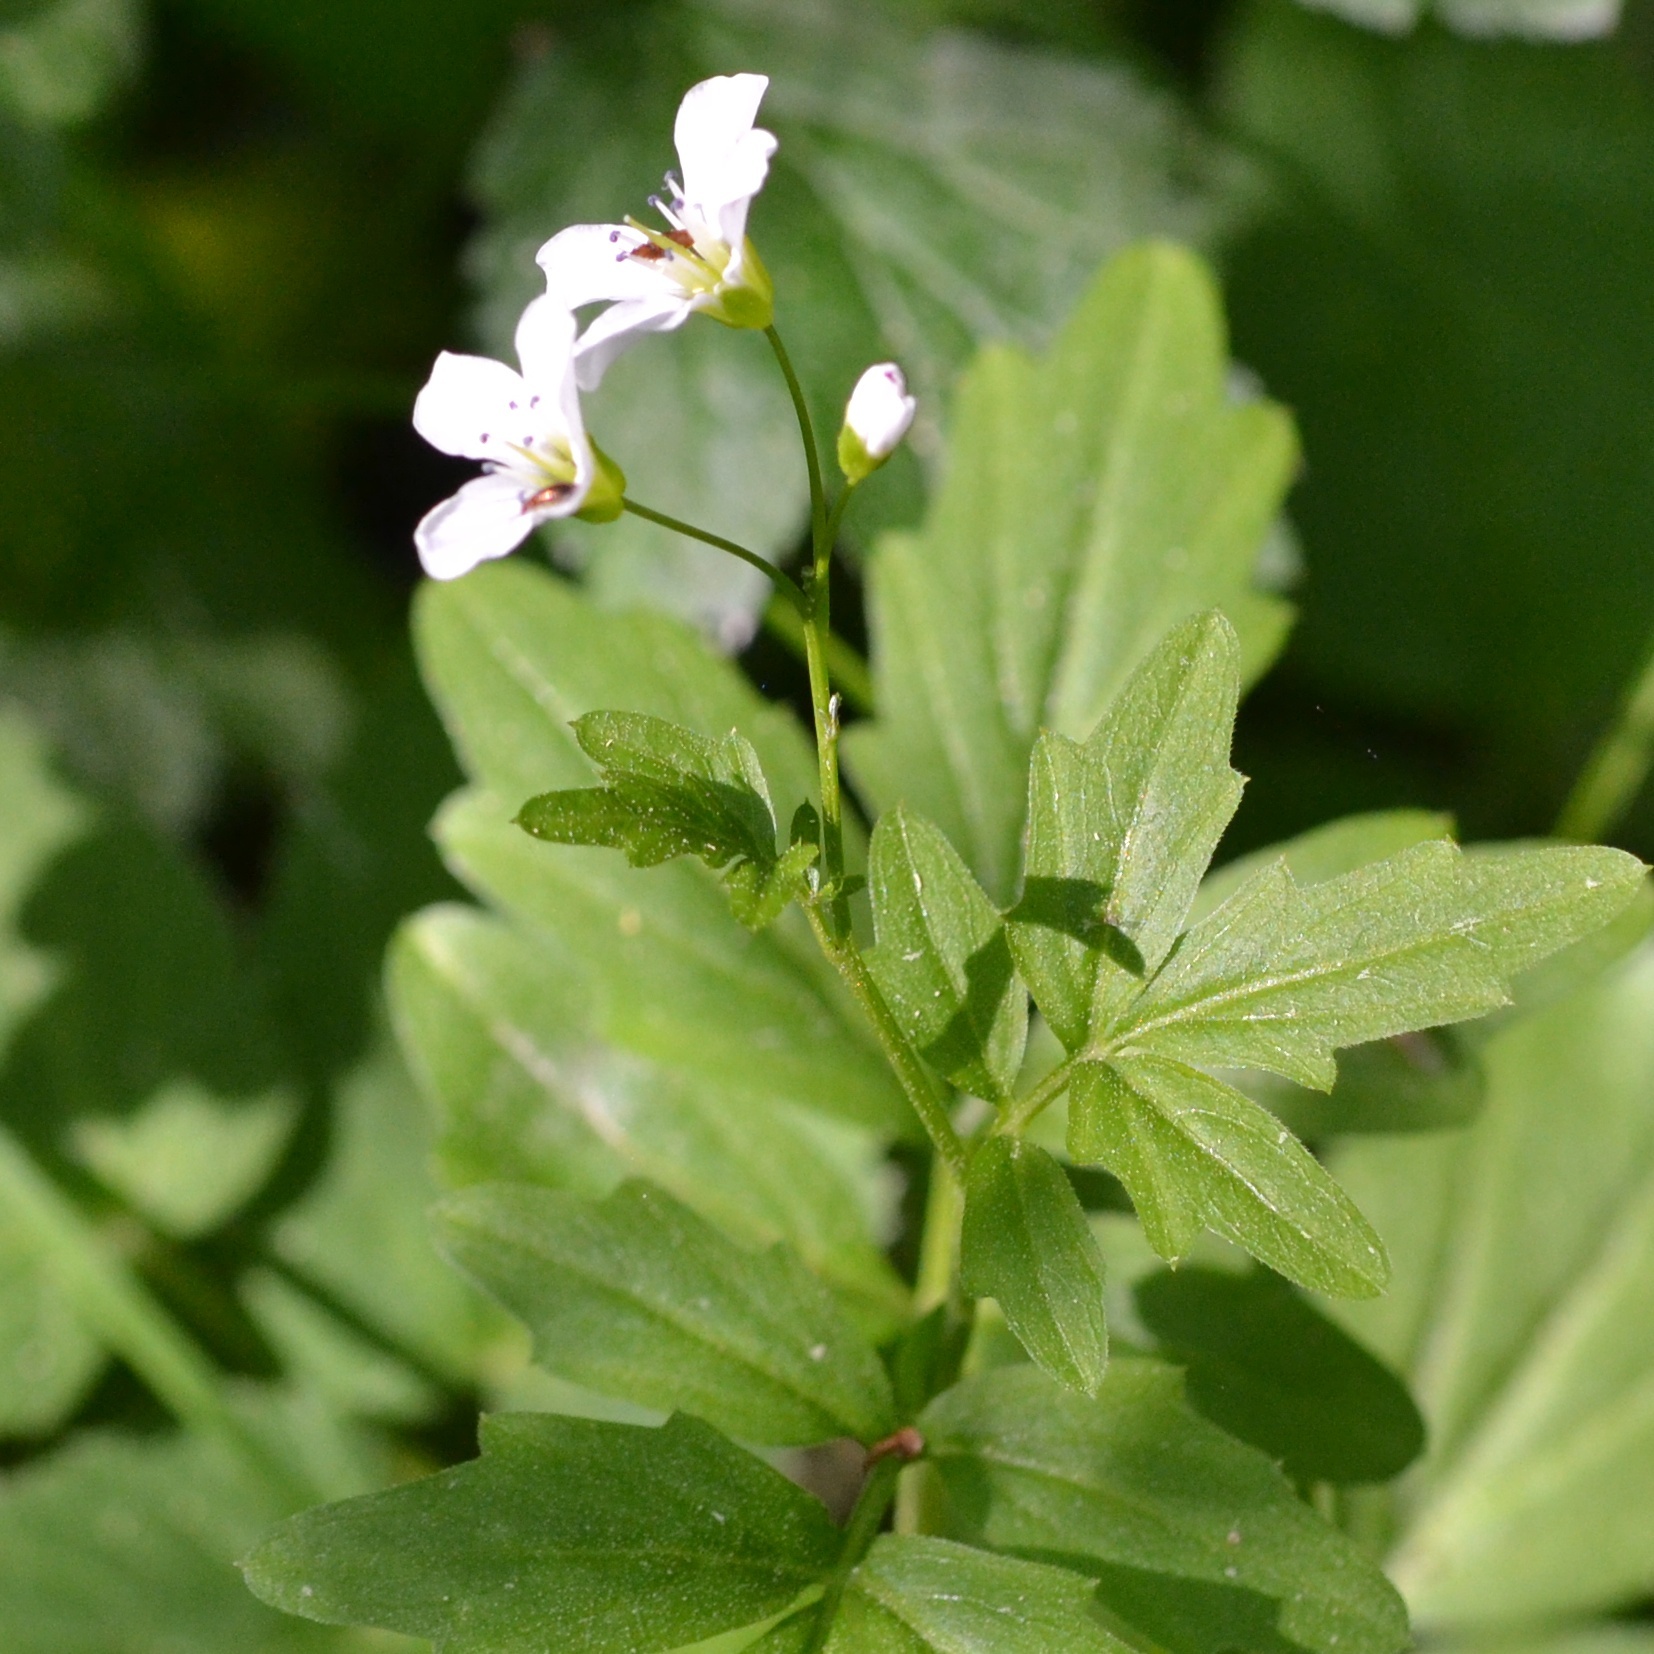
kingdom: Plantae
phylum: Tracheophyta
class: Magnoliopsida
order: Brassicales
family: Brassicaceae
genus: Cardamine
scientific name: Cardamine amara
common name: Large bitter-cress
